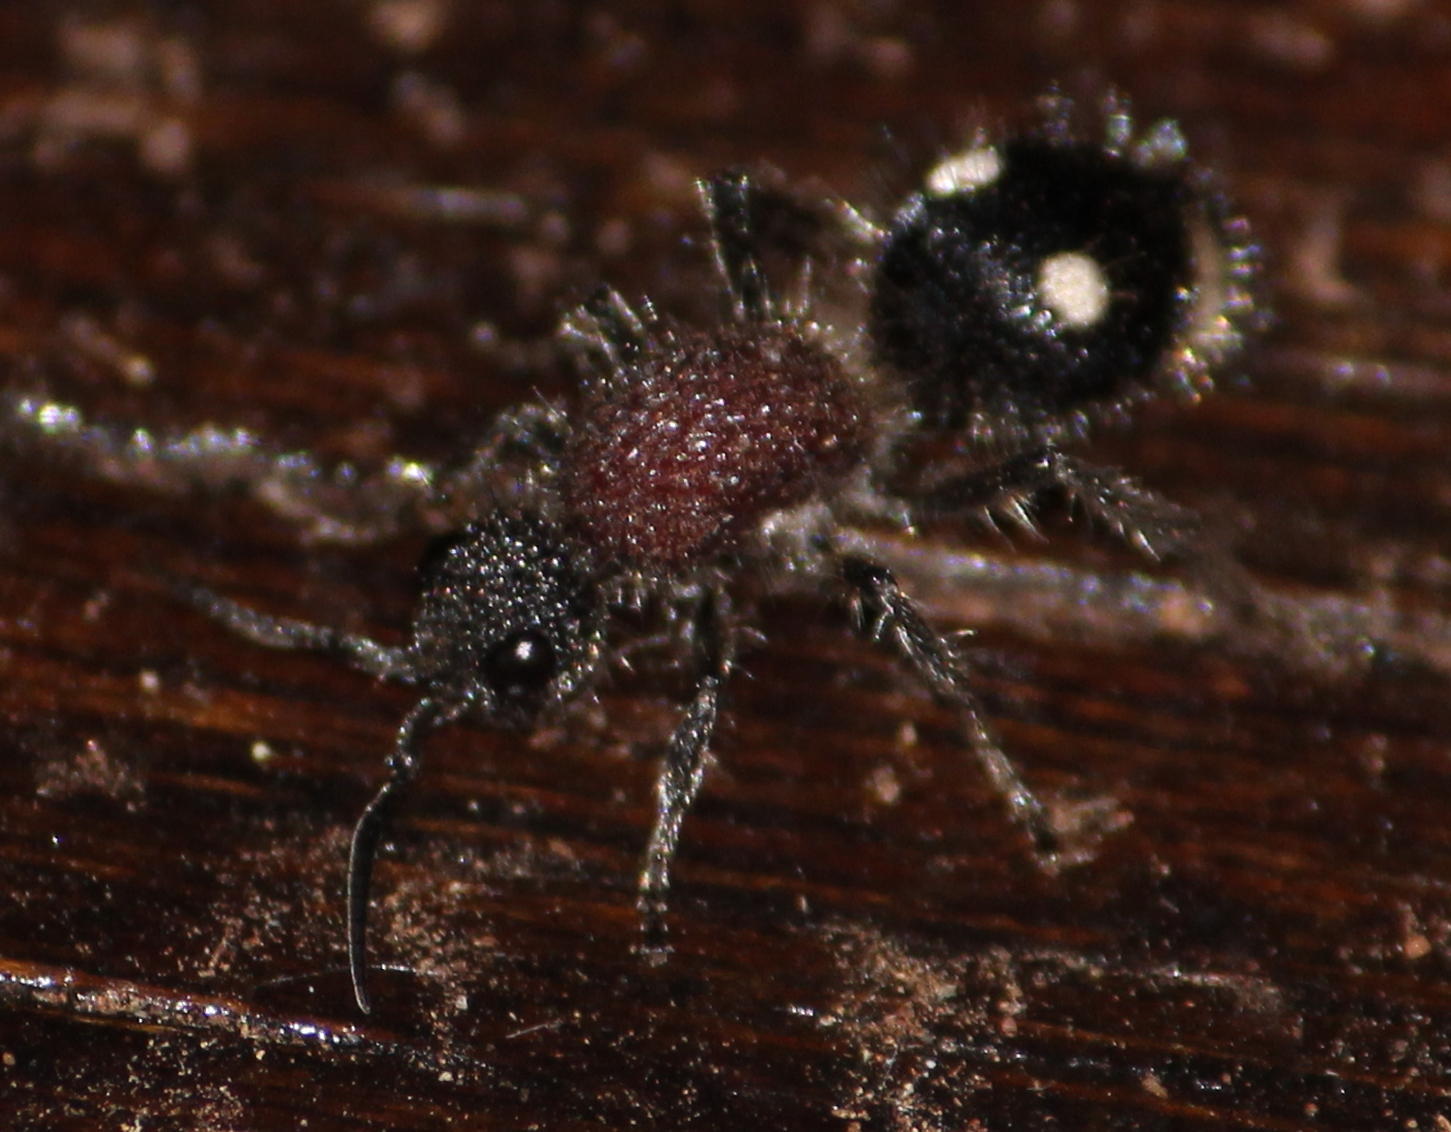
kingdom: Animalia
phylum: Arthropoda
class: Insecta
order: Hymenoptera
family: Mutillidae
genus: Dolichomutilla
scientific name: Dolichomutilla
